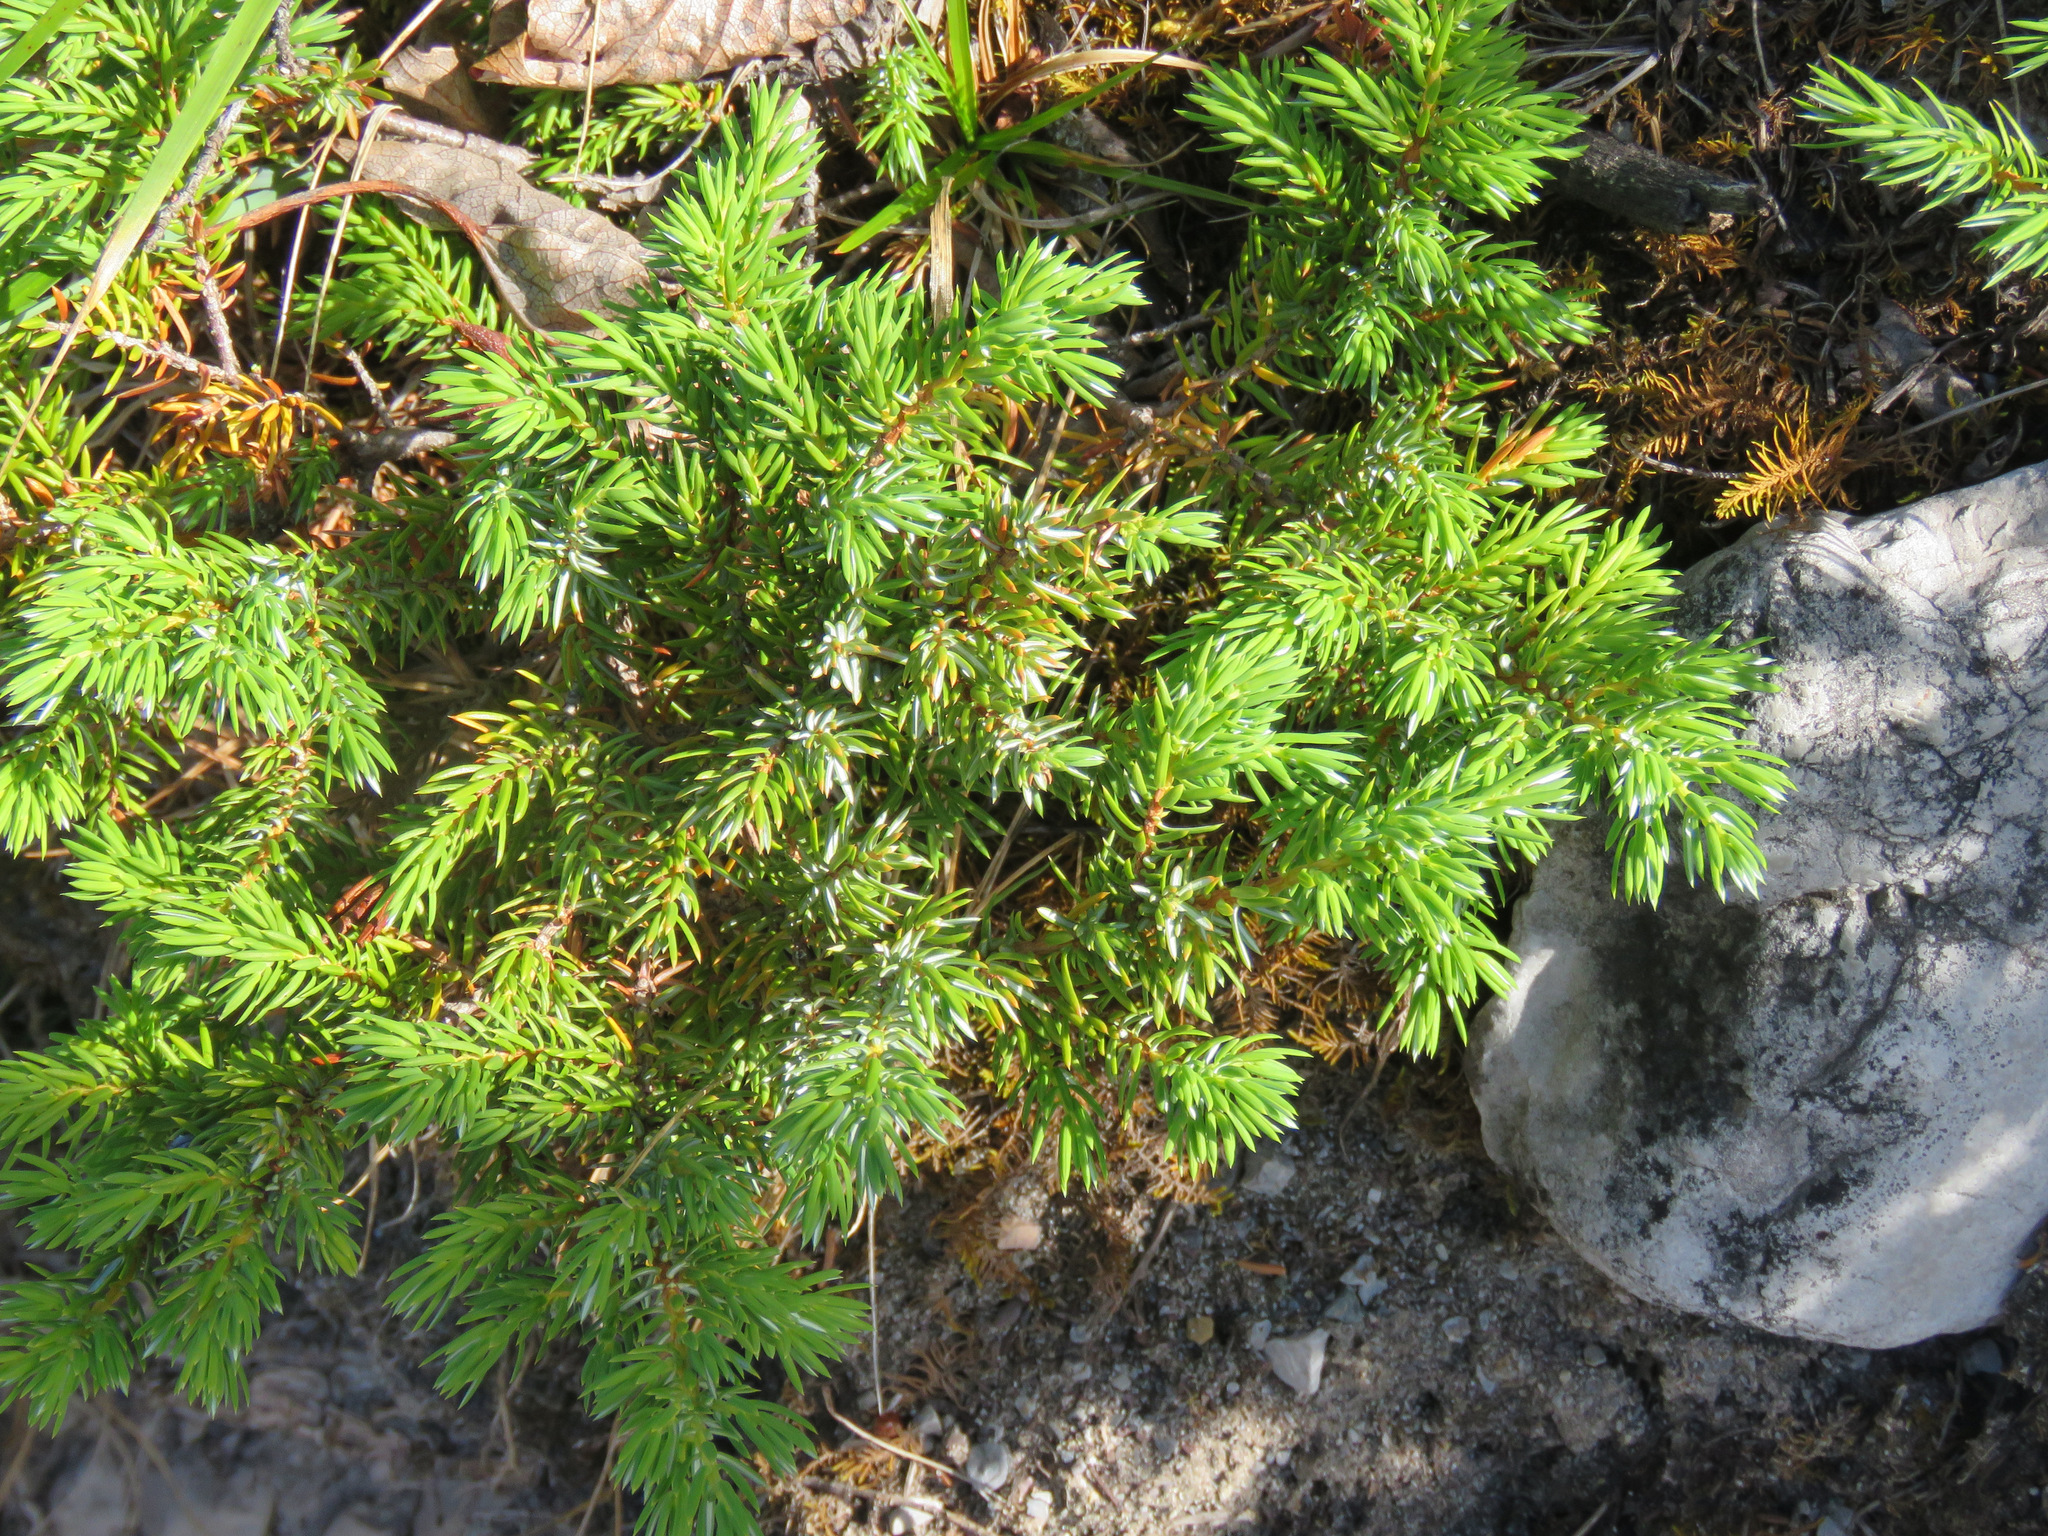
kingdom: Plantae
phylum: Tracheophyta
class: Pinopsida
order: Pinales
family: Cupressaceae
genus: Juniperus
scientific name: Juniperus communis
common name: Common juniper
